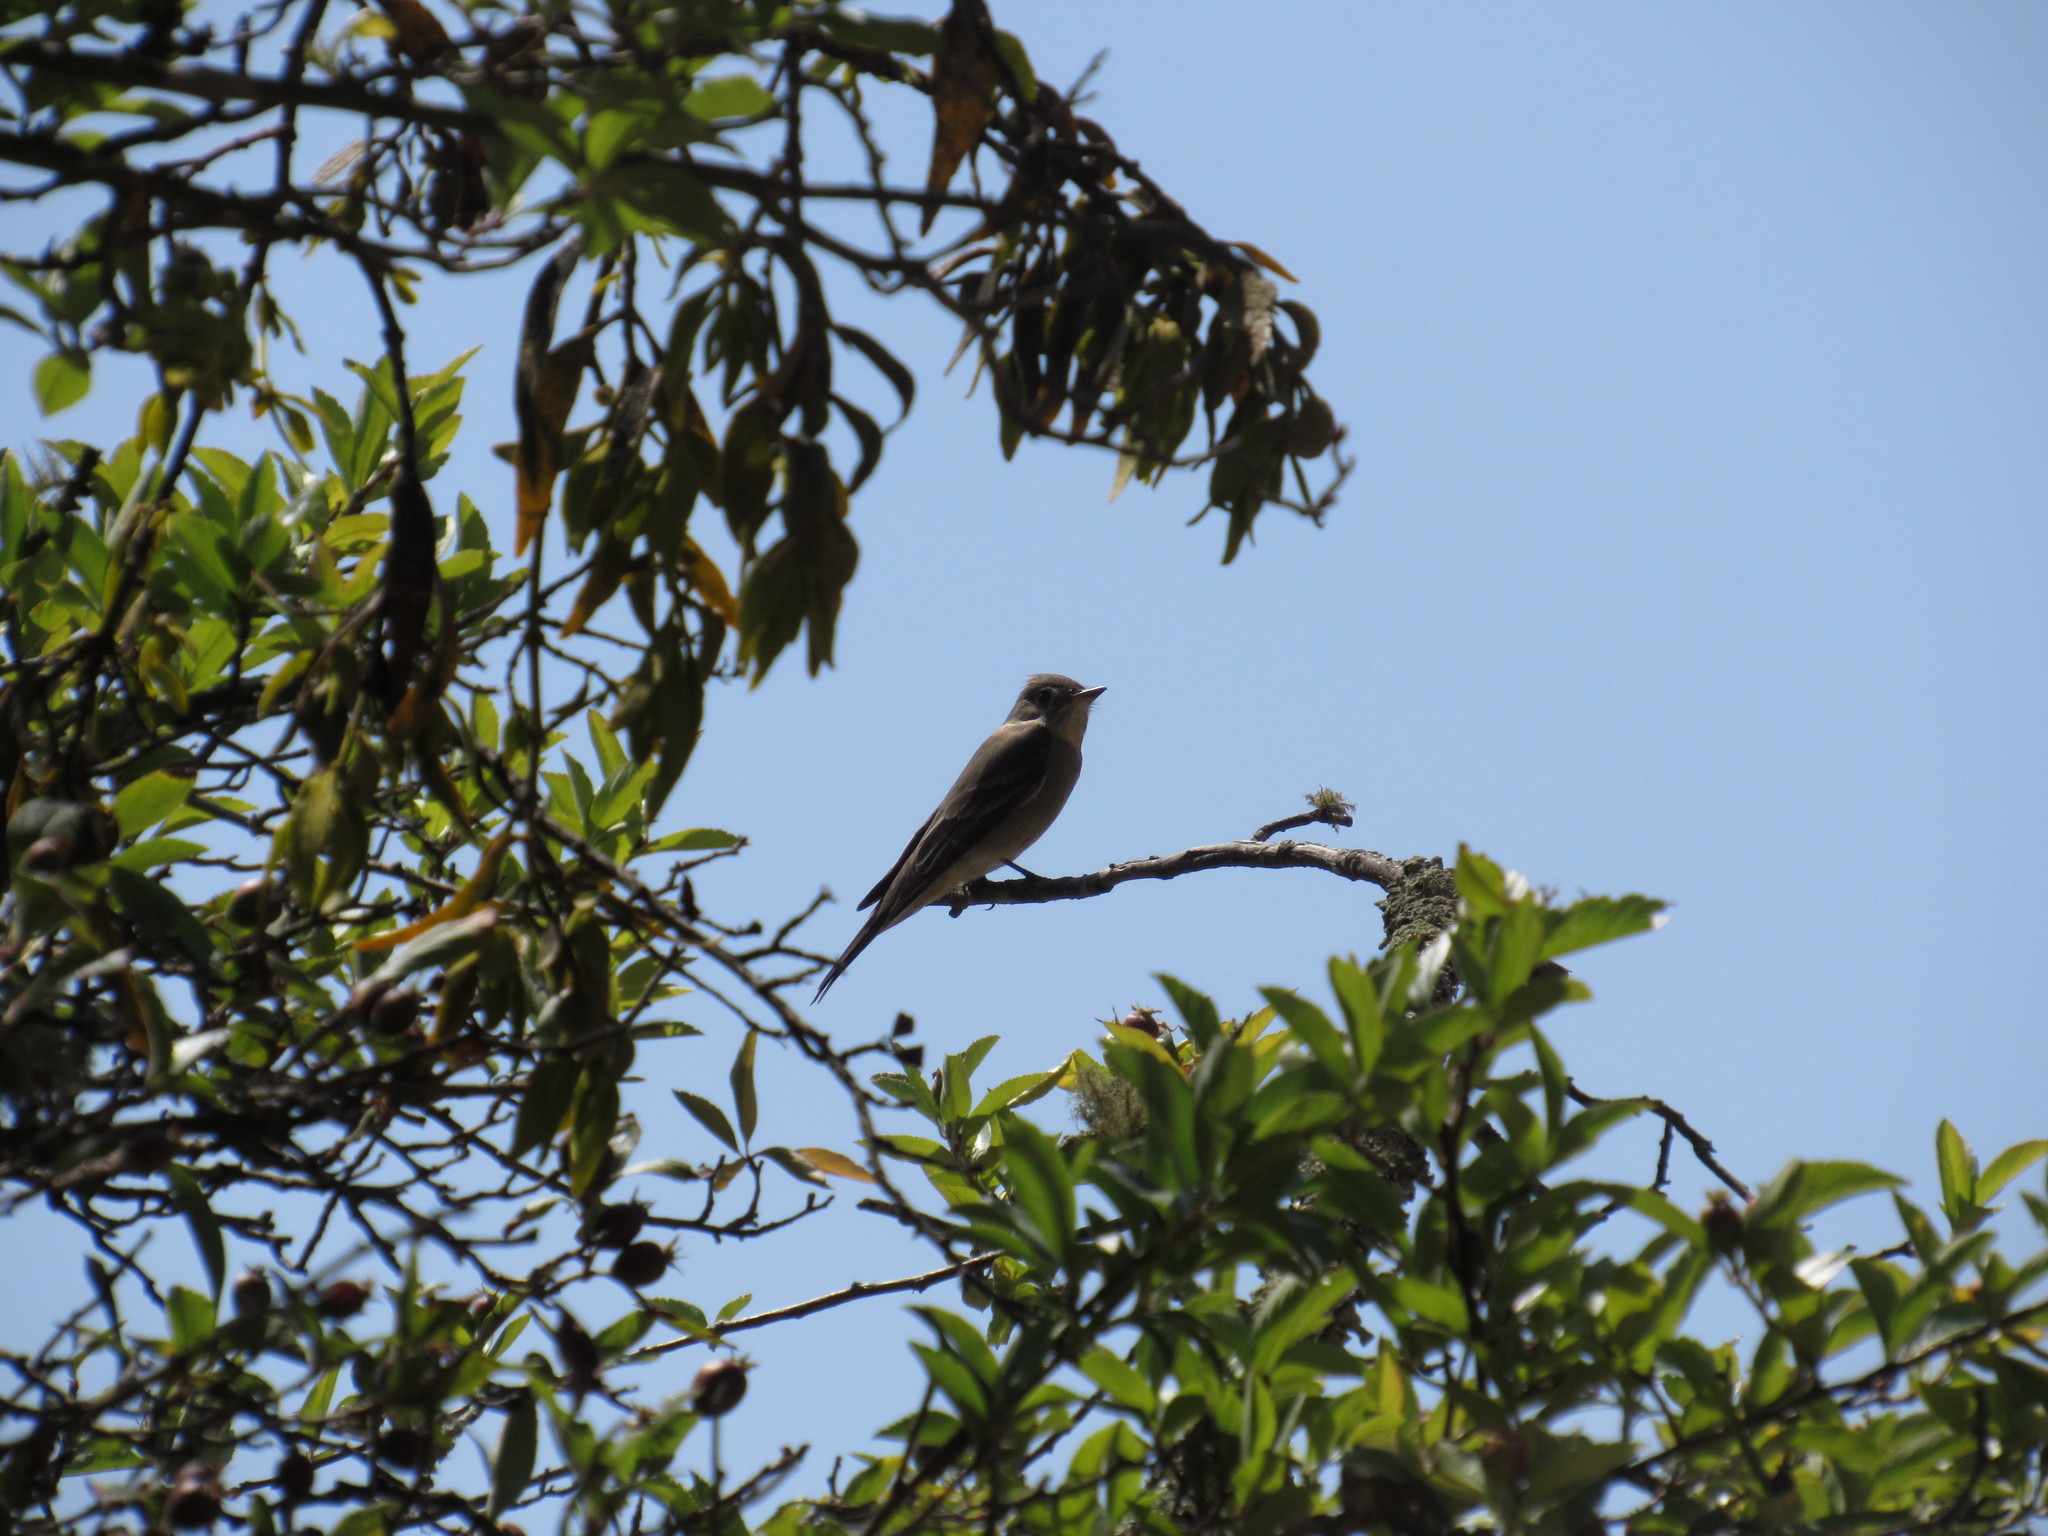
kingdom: Animalia
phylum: Chordata
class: Aves
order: Passeriformes
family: Tyrannidae
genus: Contopus
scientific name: Contopus sordidulus
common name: Western wood-pewee
